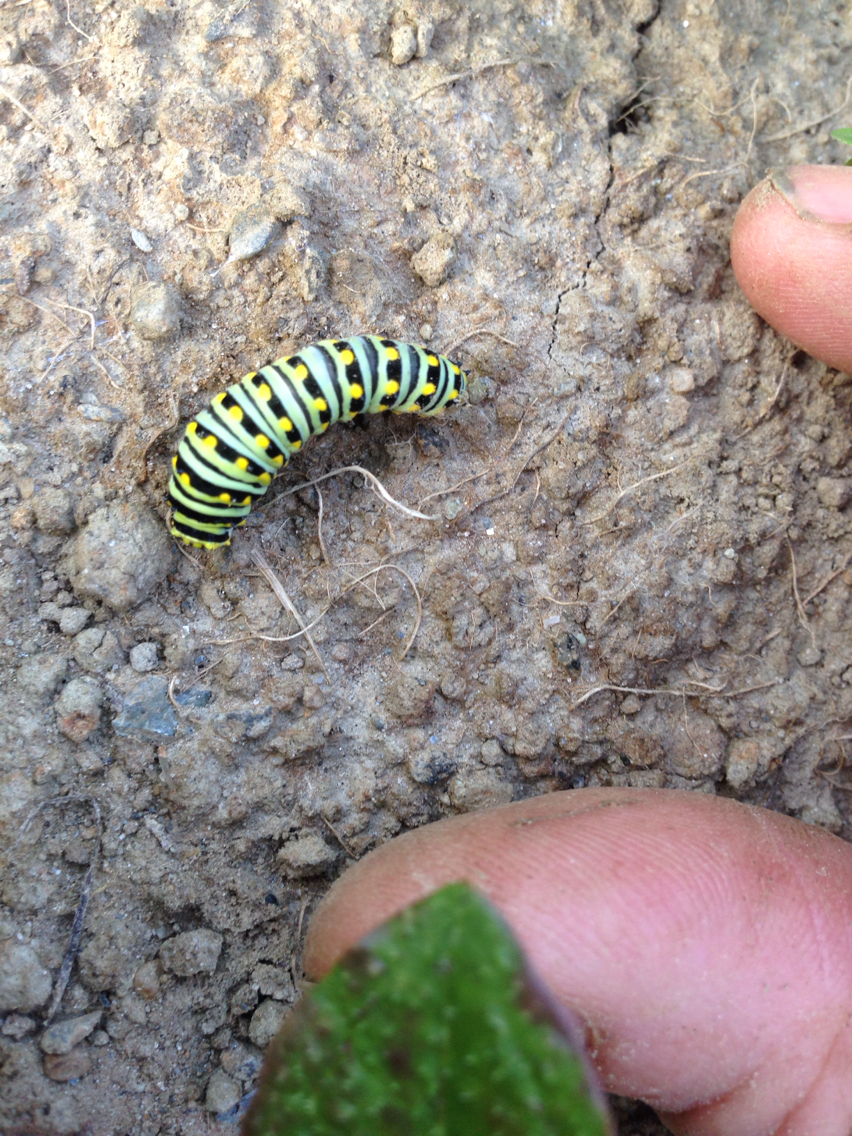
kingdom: Animalia
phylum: Arthropoda
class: Insecta
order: Lepidoptera
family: Papilionidae
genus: Papilio
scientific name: Papilio polyxenes
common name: Black swallowtail
